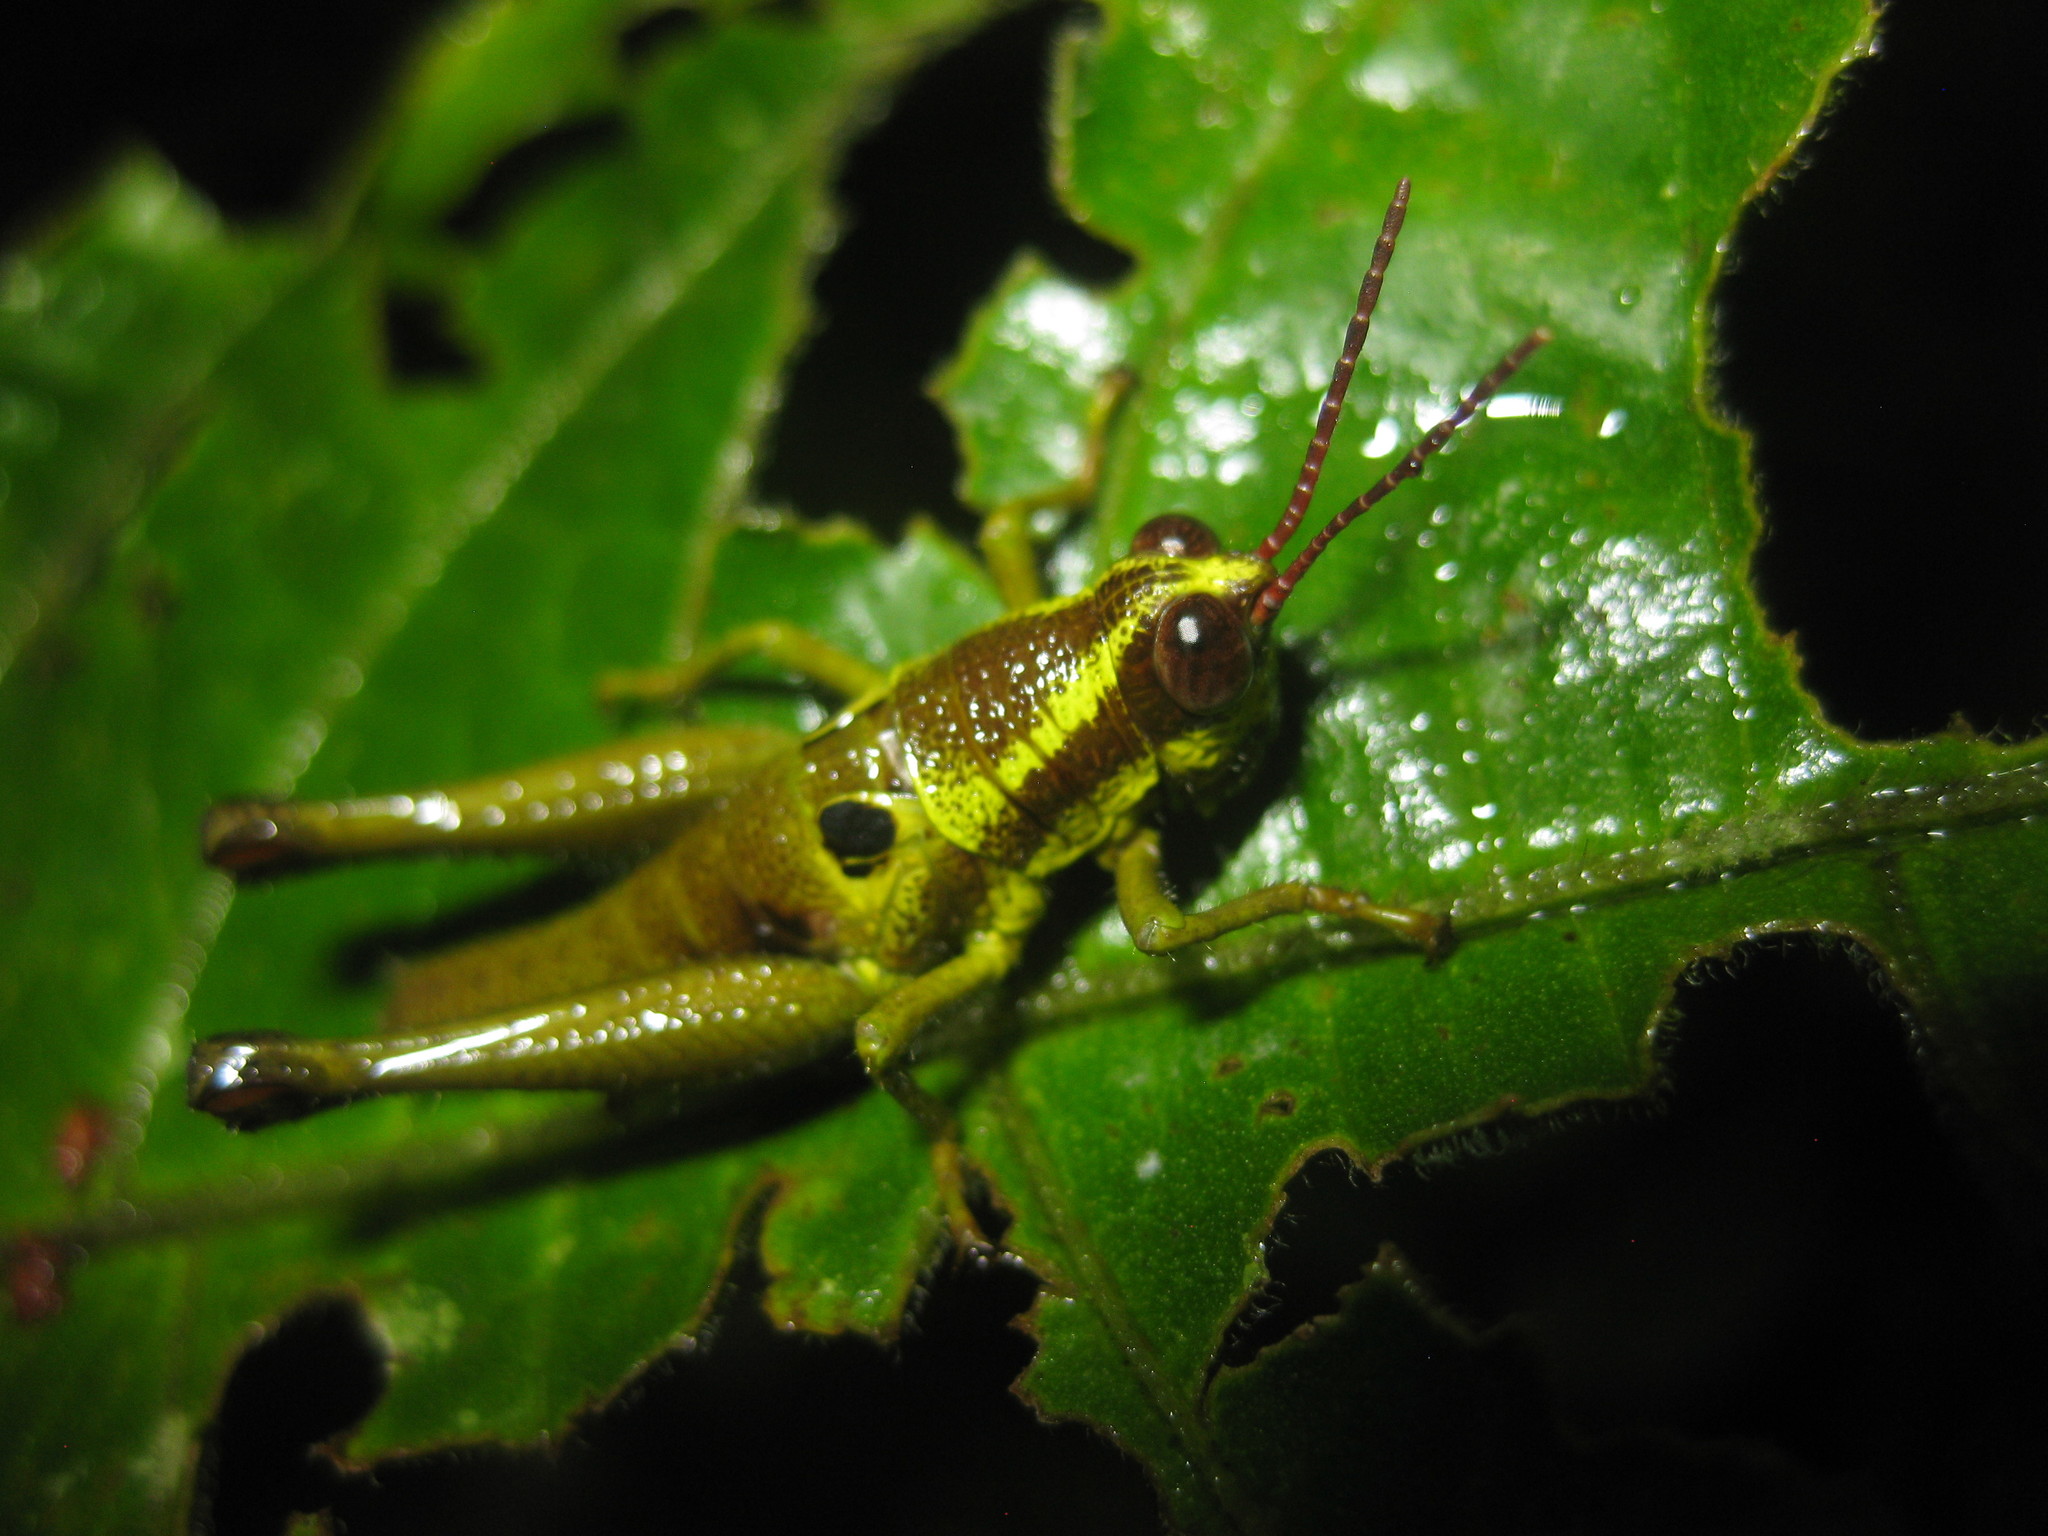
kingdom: Animalia
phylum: Arthropoda
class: Insecta
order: Orthoptera
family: Acrididae
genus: Ommatolampis
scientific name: Ommatolampis perspicillata
